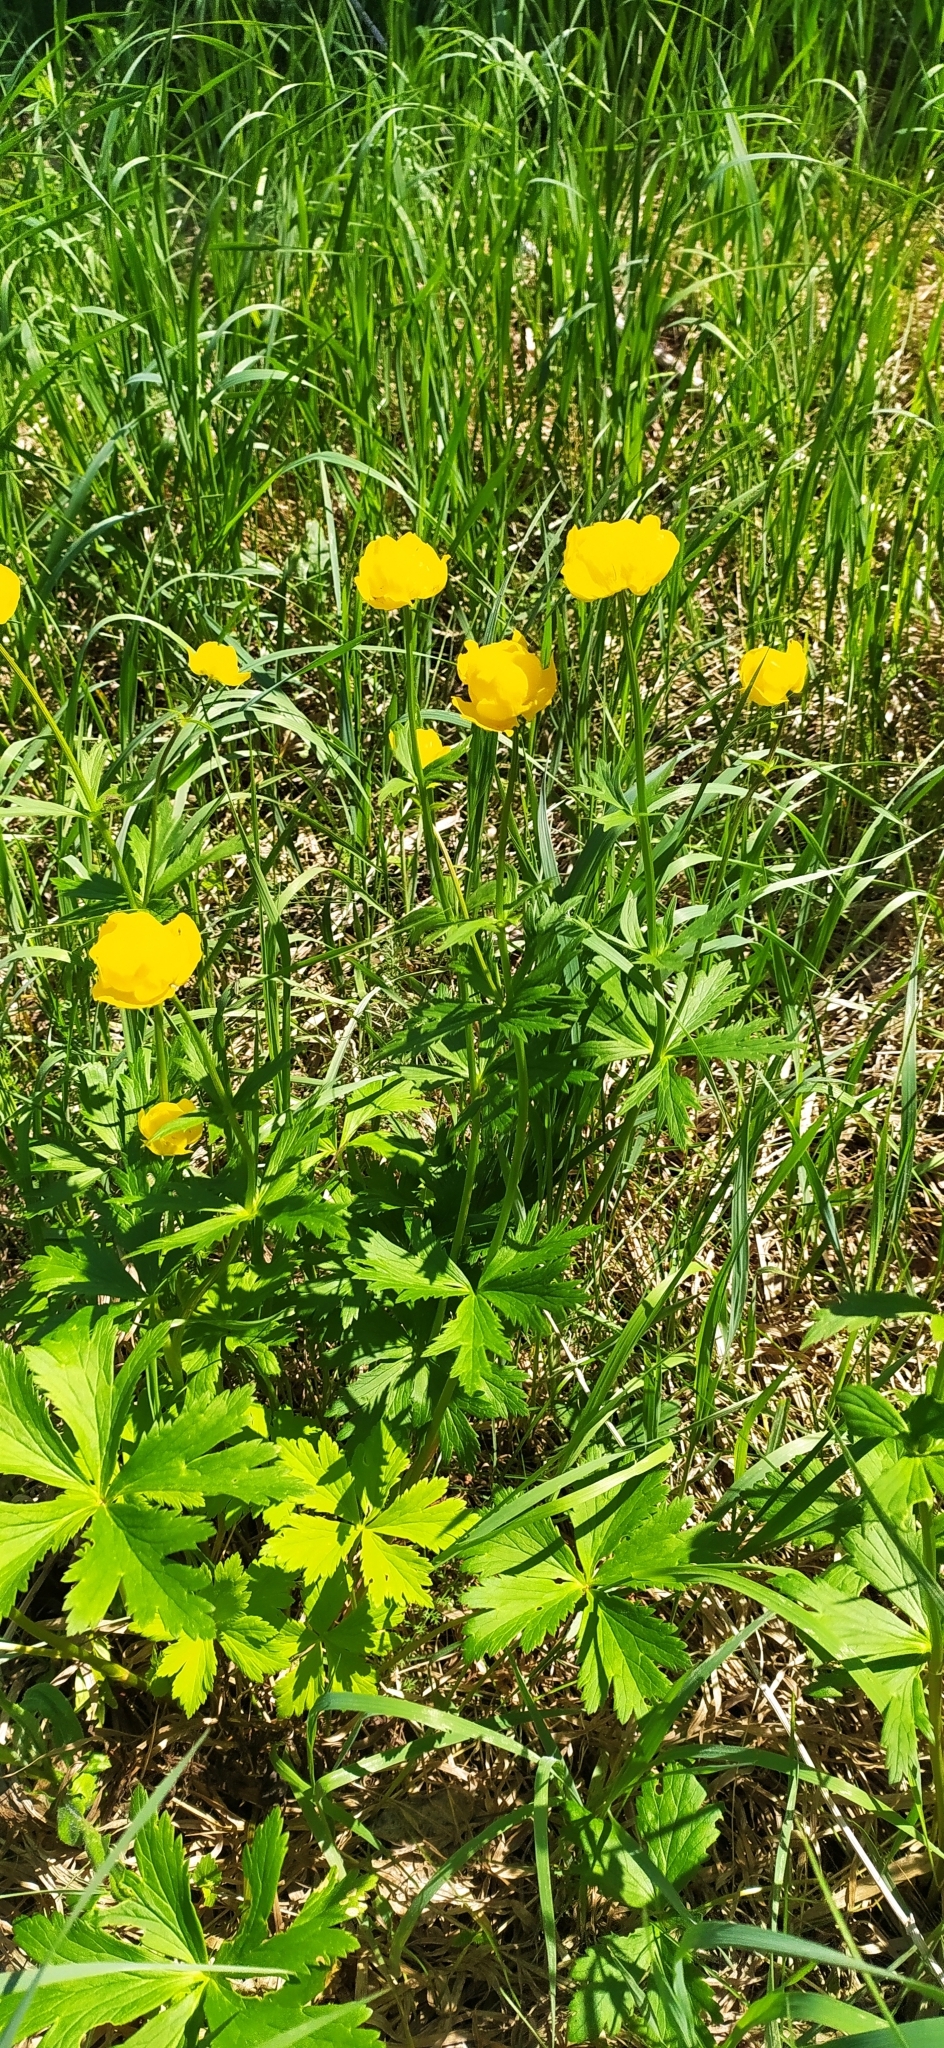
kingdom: Plantae
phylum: Tracheophyta
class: Magnoliopsida
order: Ranunculales
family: Ranunculaceae
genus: Trollius
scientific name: Trollius europaeus
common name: European globeflower
